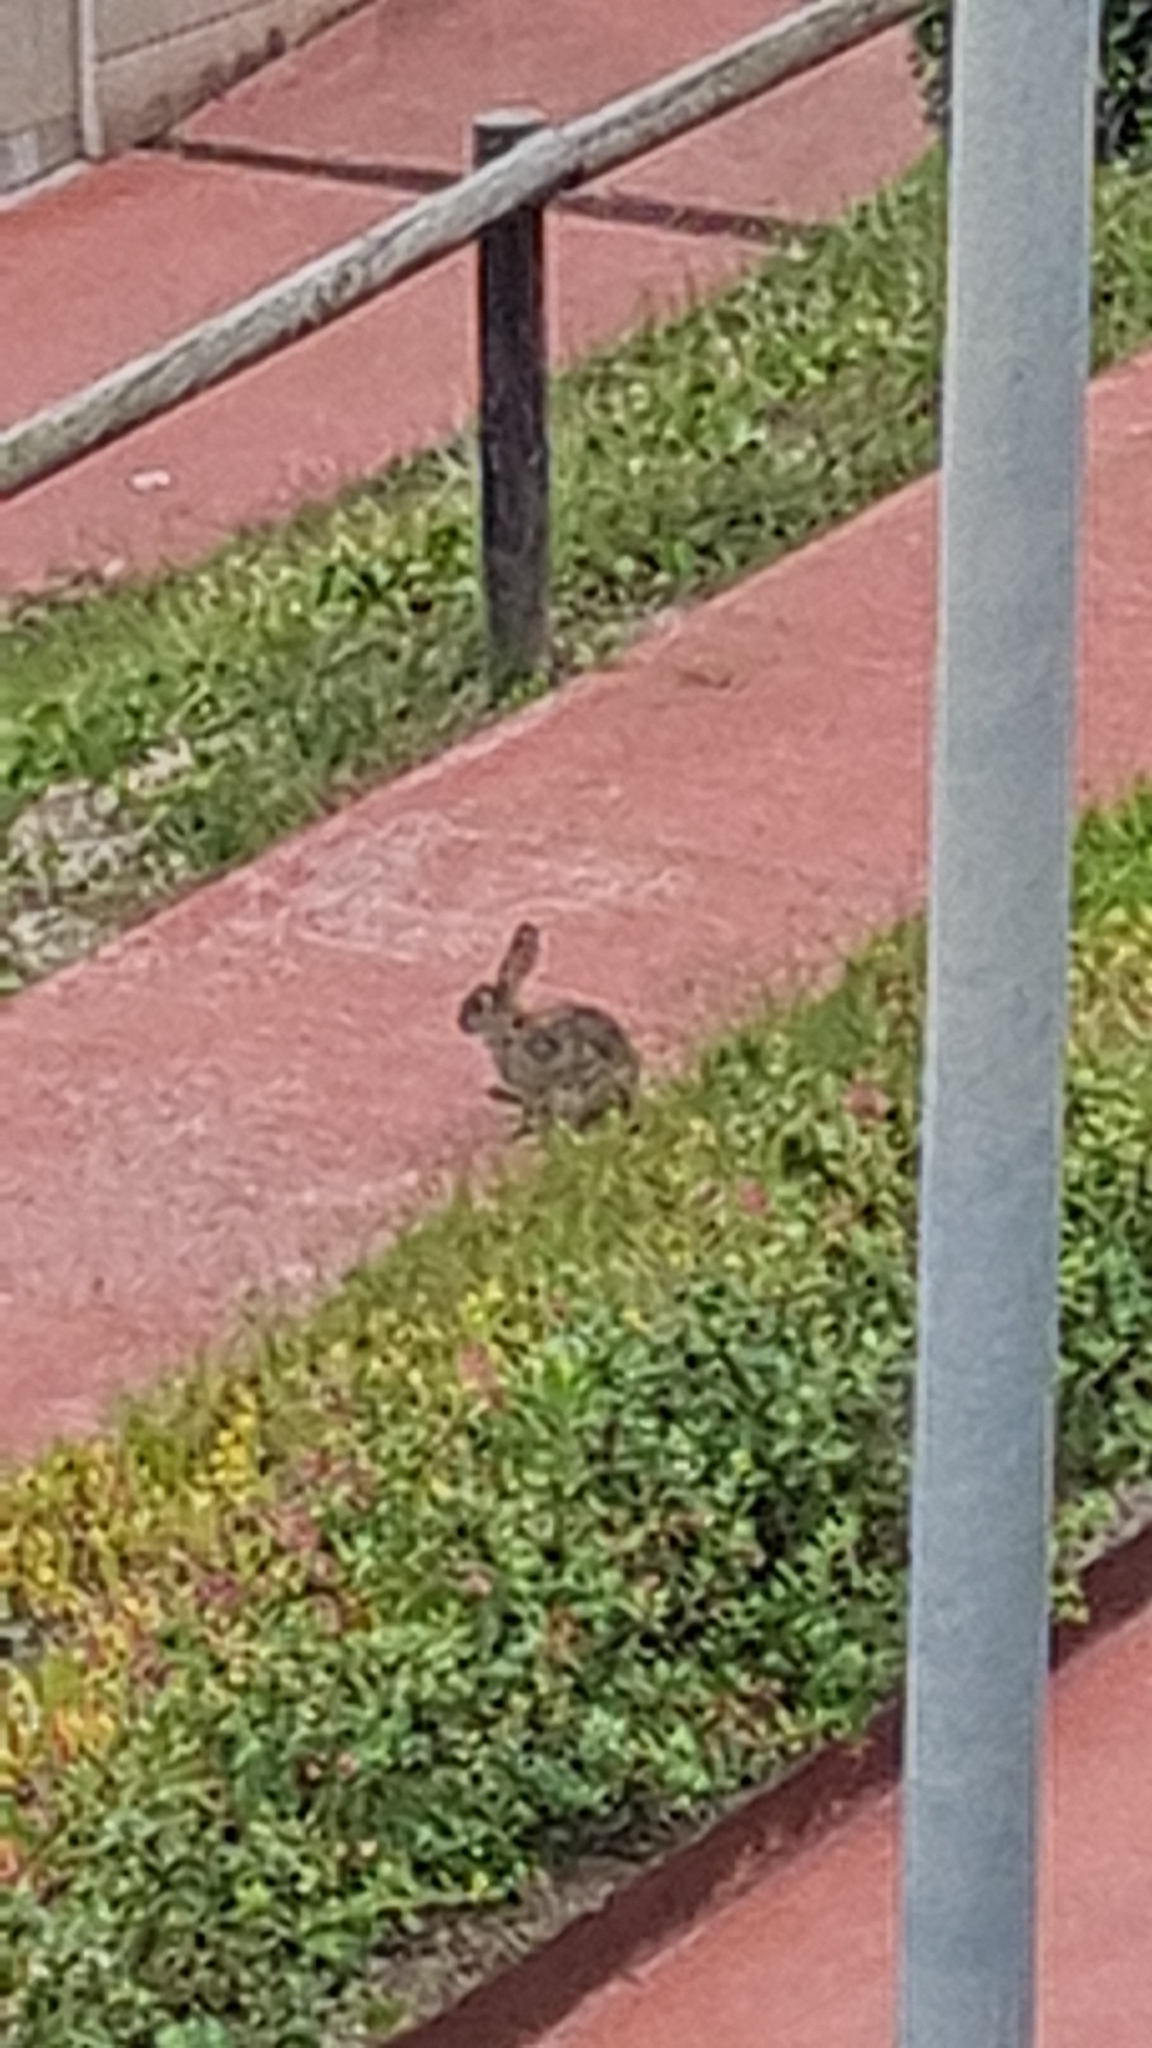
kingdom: Animalia
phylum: Chordata
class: Mammalia
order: Lagomorpha
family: Leporidae
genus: Oryctolagus
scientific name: Oryctolagus cuniculus
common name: European rabbit
